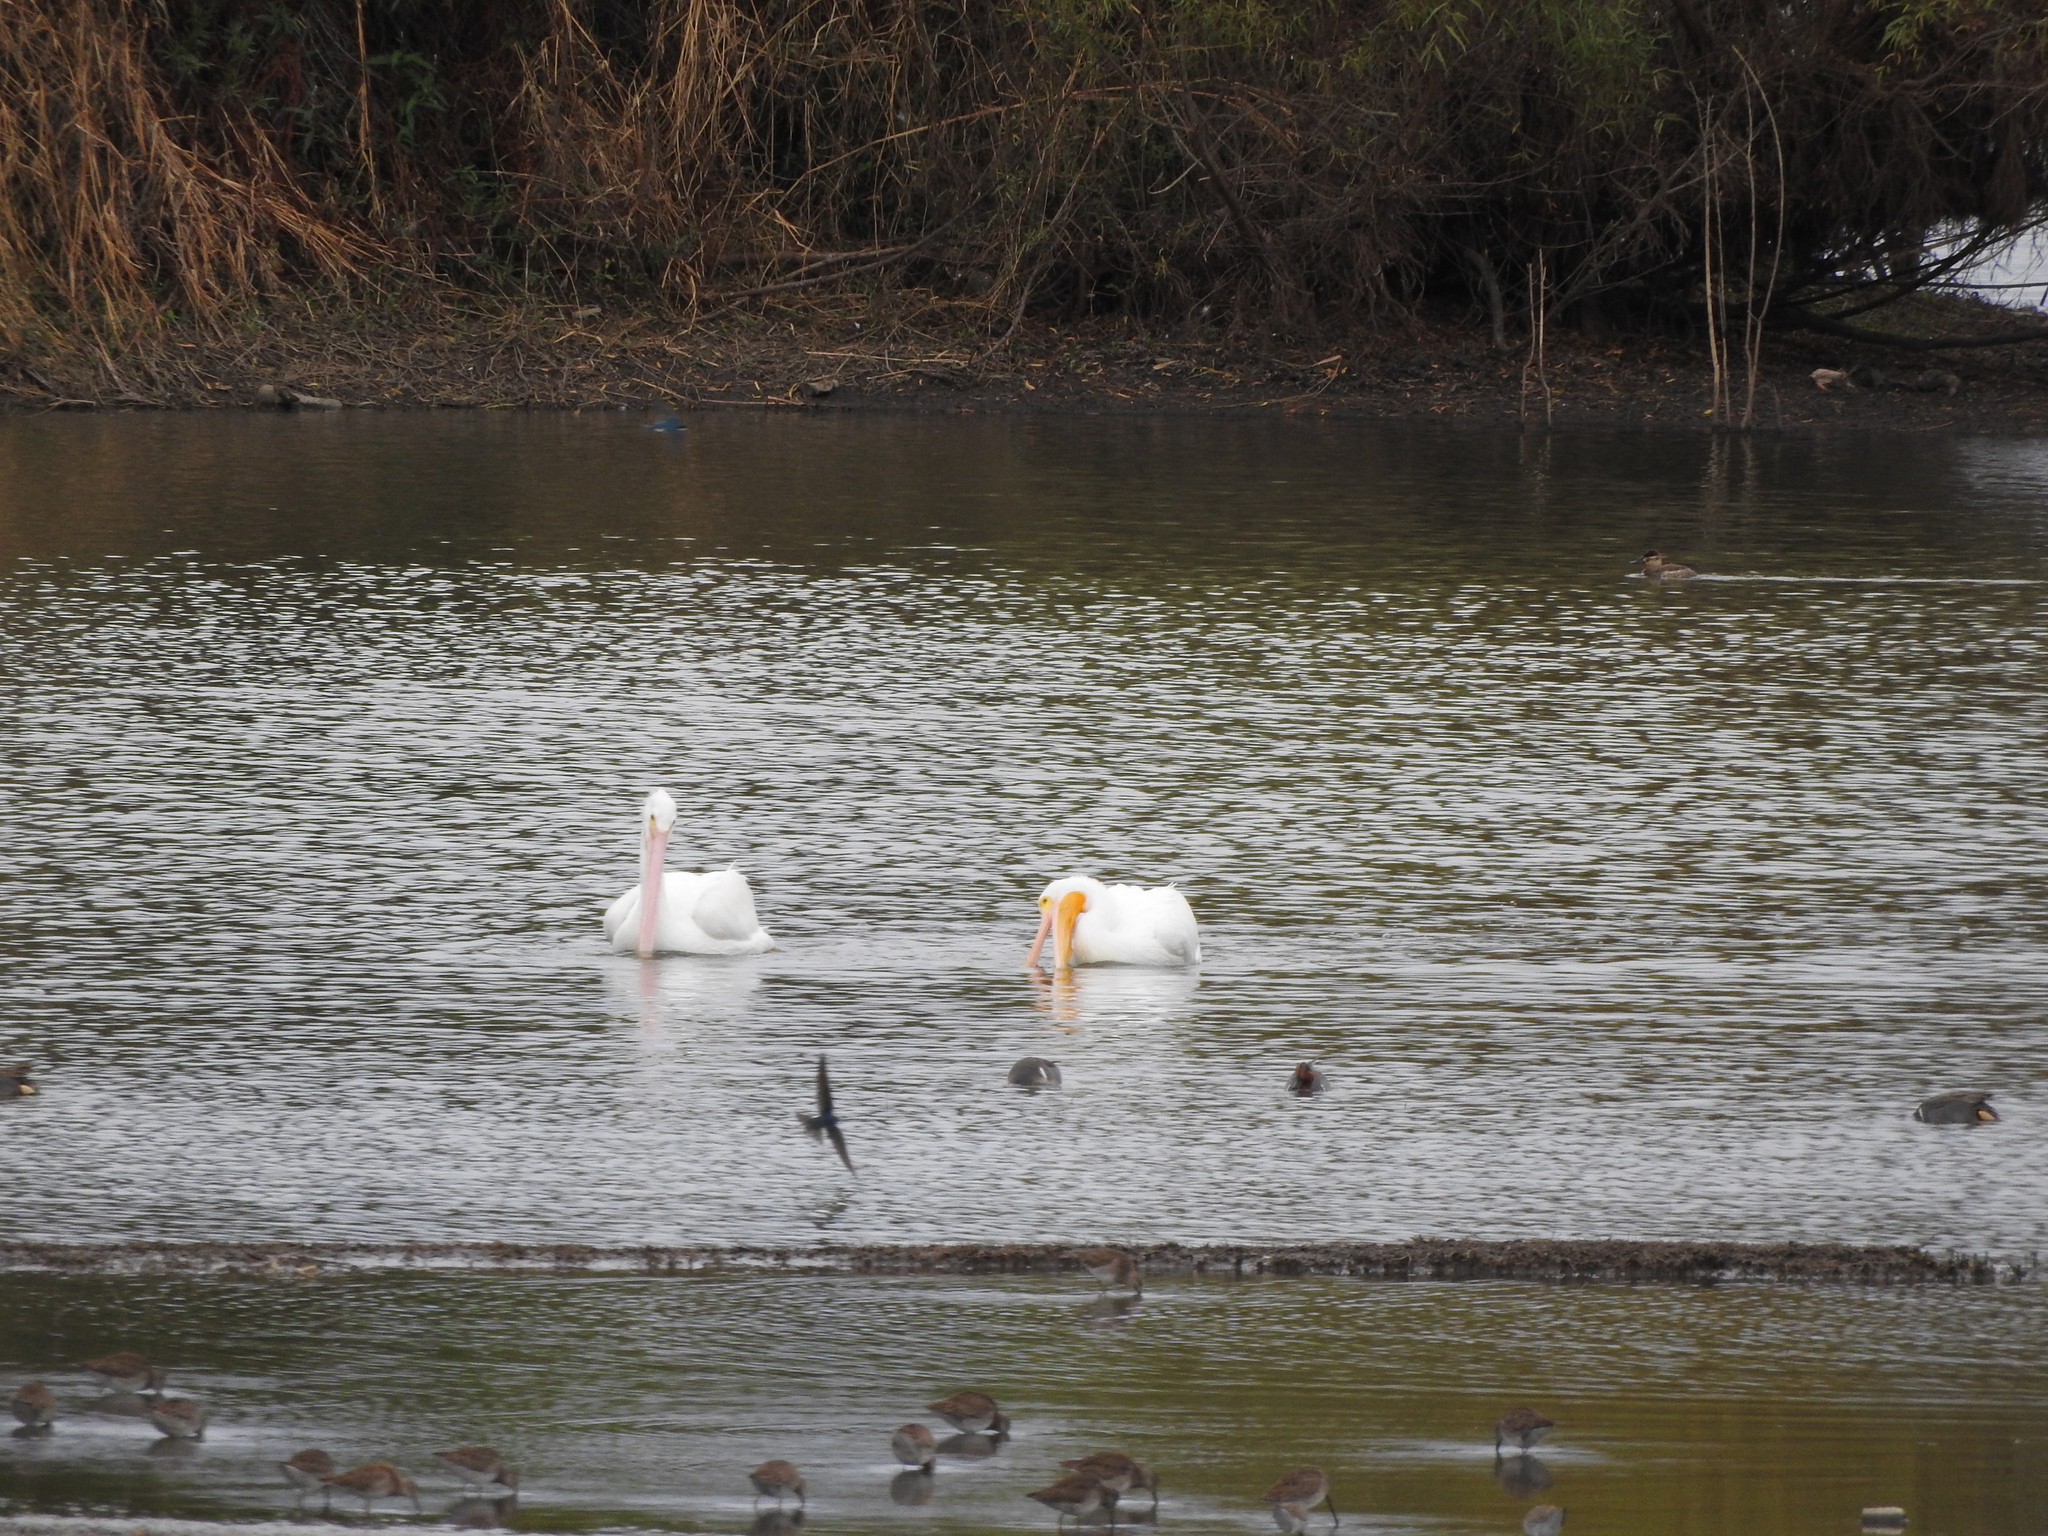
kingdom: Animalia
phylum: Chordata
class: Aves
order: Pelecaniformes
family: Pelecanidae
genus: Pelecanus
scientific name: Pelecanus erythrorhynchos
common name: American white pelican
